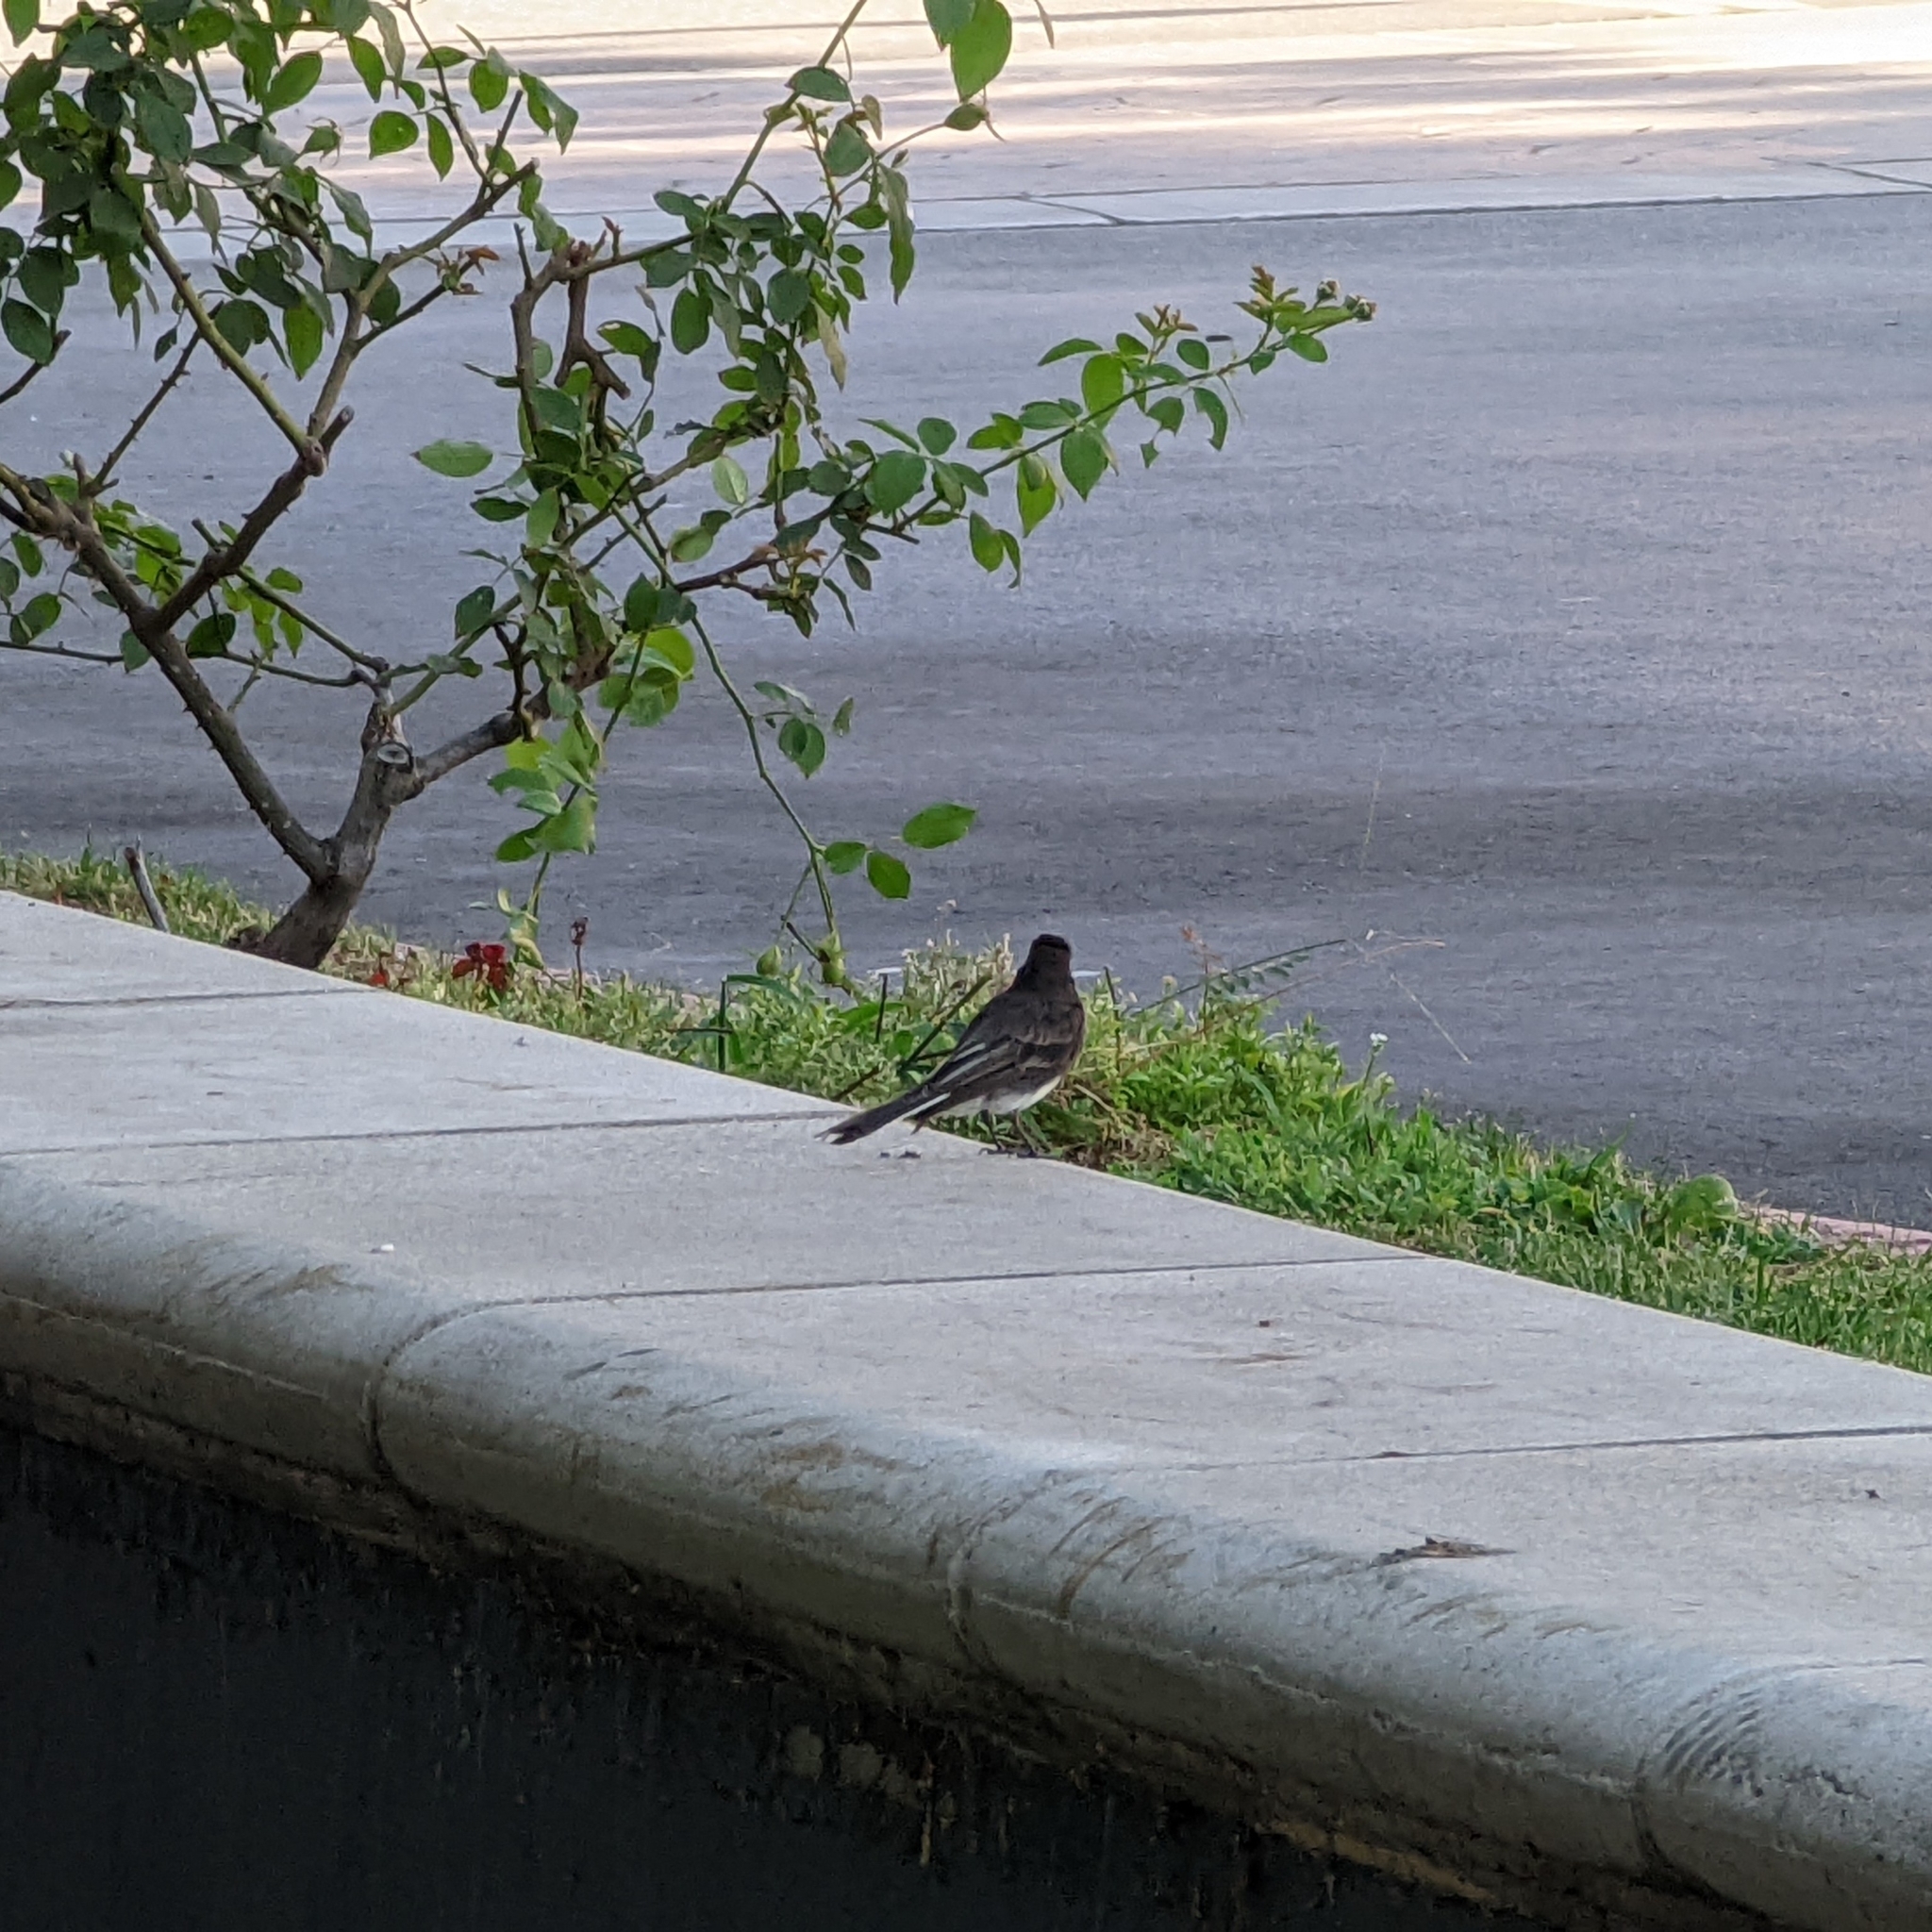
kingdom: Animalia
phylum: Chordata
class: Aves
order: Passeriformes
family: Tyrannidae
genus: Sayornis
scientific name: Sayornis nigricans
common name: Black phoebe
